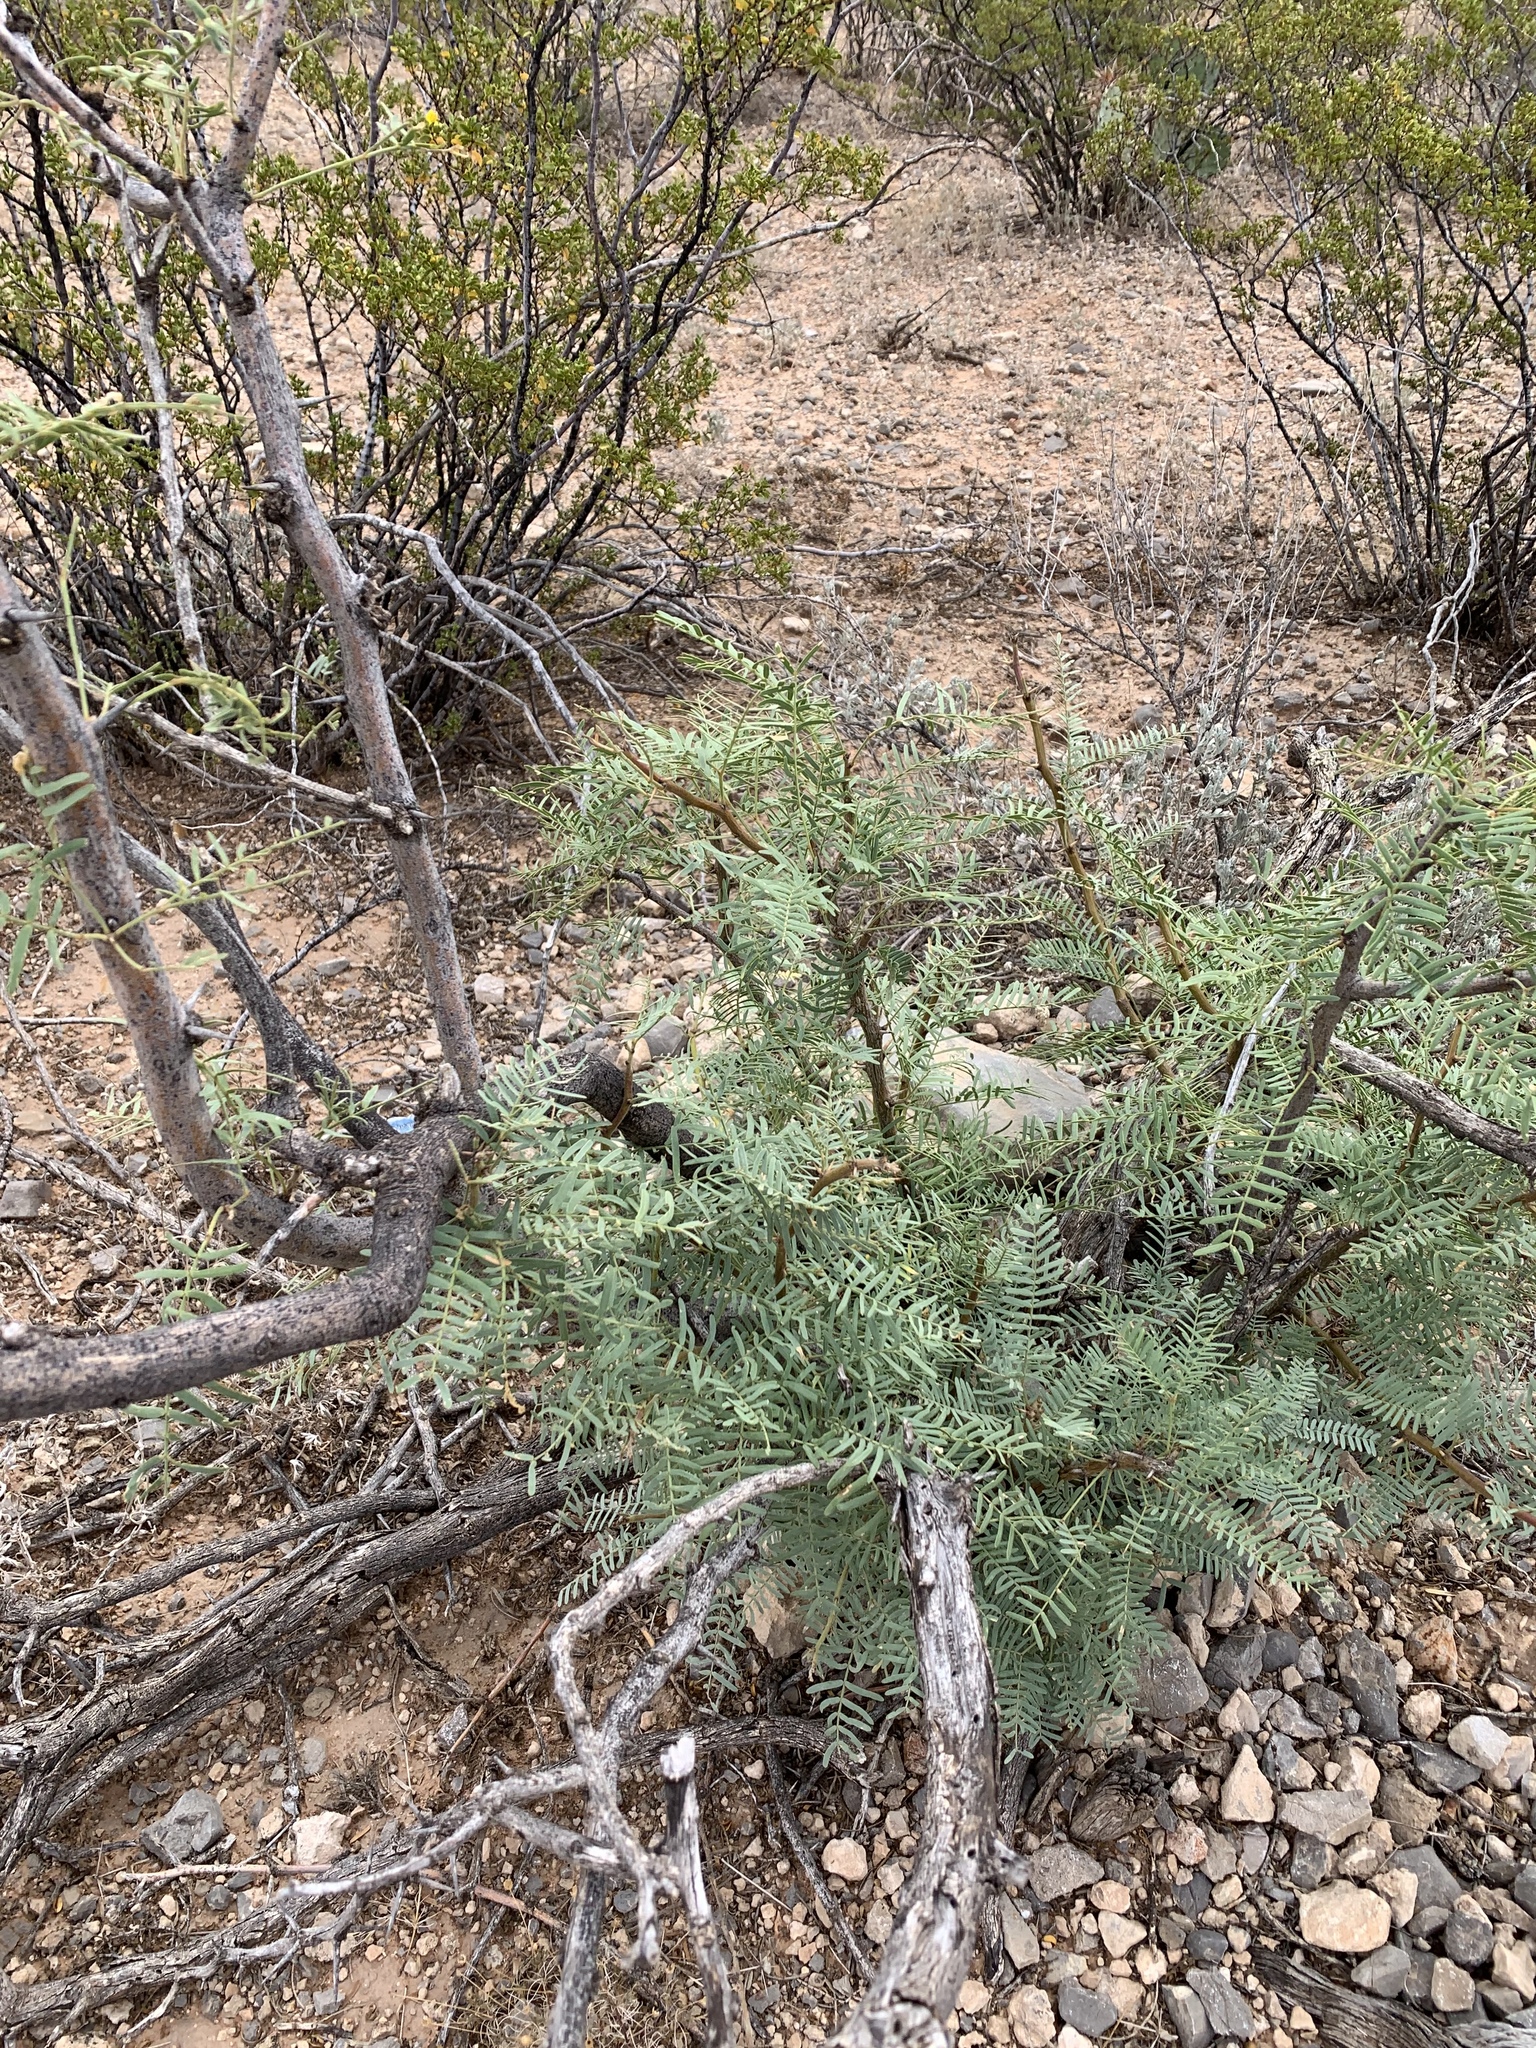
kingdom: Plantae
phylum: Tracheophyta
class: Magnoliopsida
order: Fabales
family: Fabaceae
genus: Prosopis
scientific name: Prosopis glandulosa
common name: Honey mesquite
